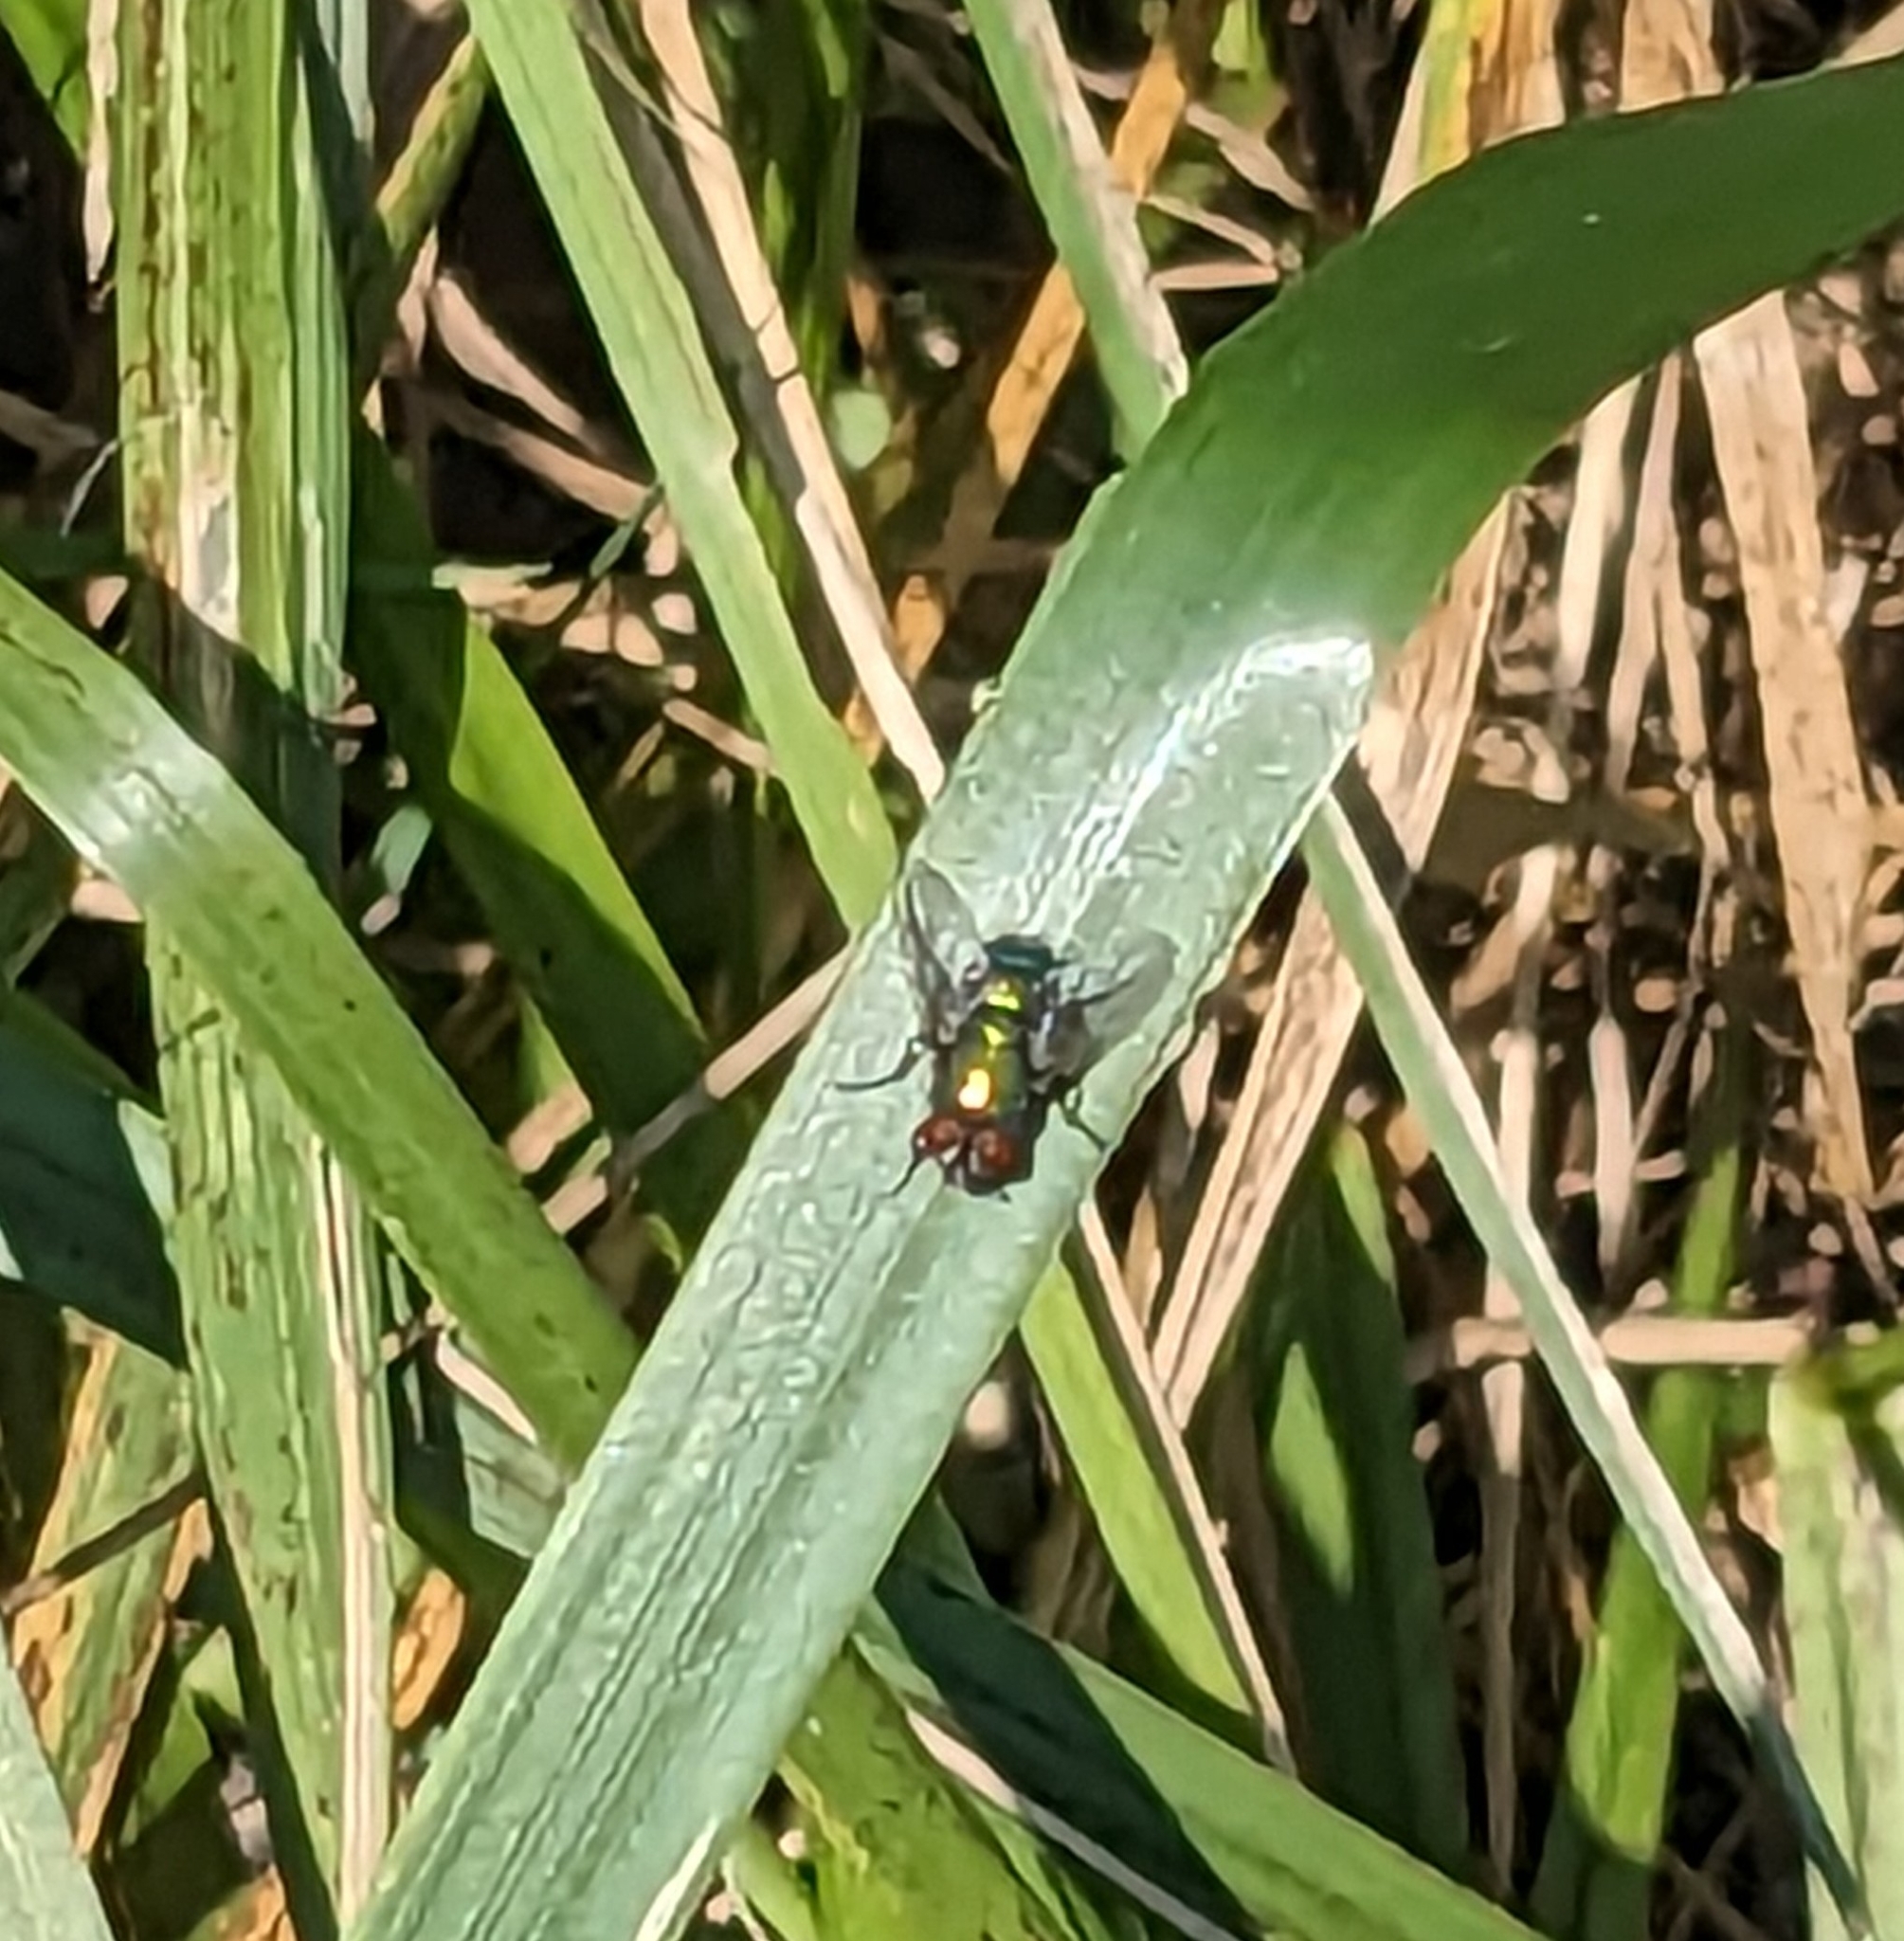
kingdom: Animalia
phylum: Arthropoda
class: Insecta
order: Diptera
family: Calliphoridae
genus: Lucilia
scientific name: Lucilia
